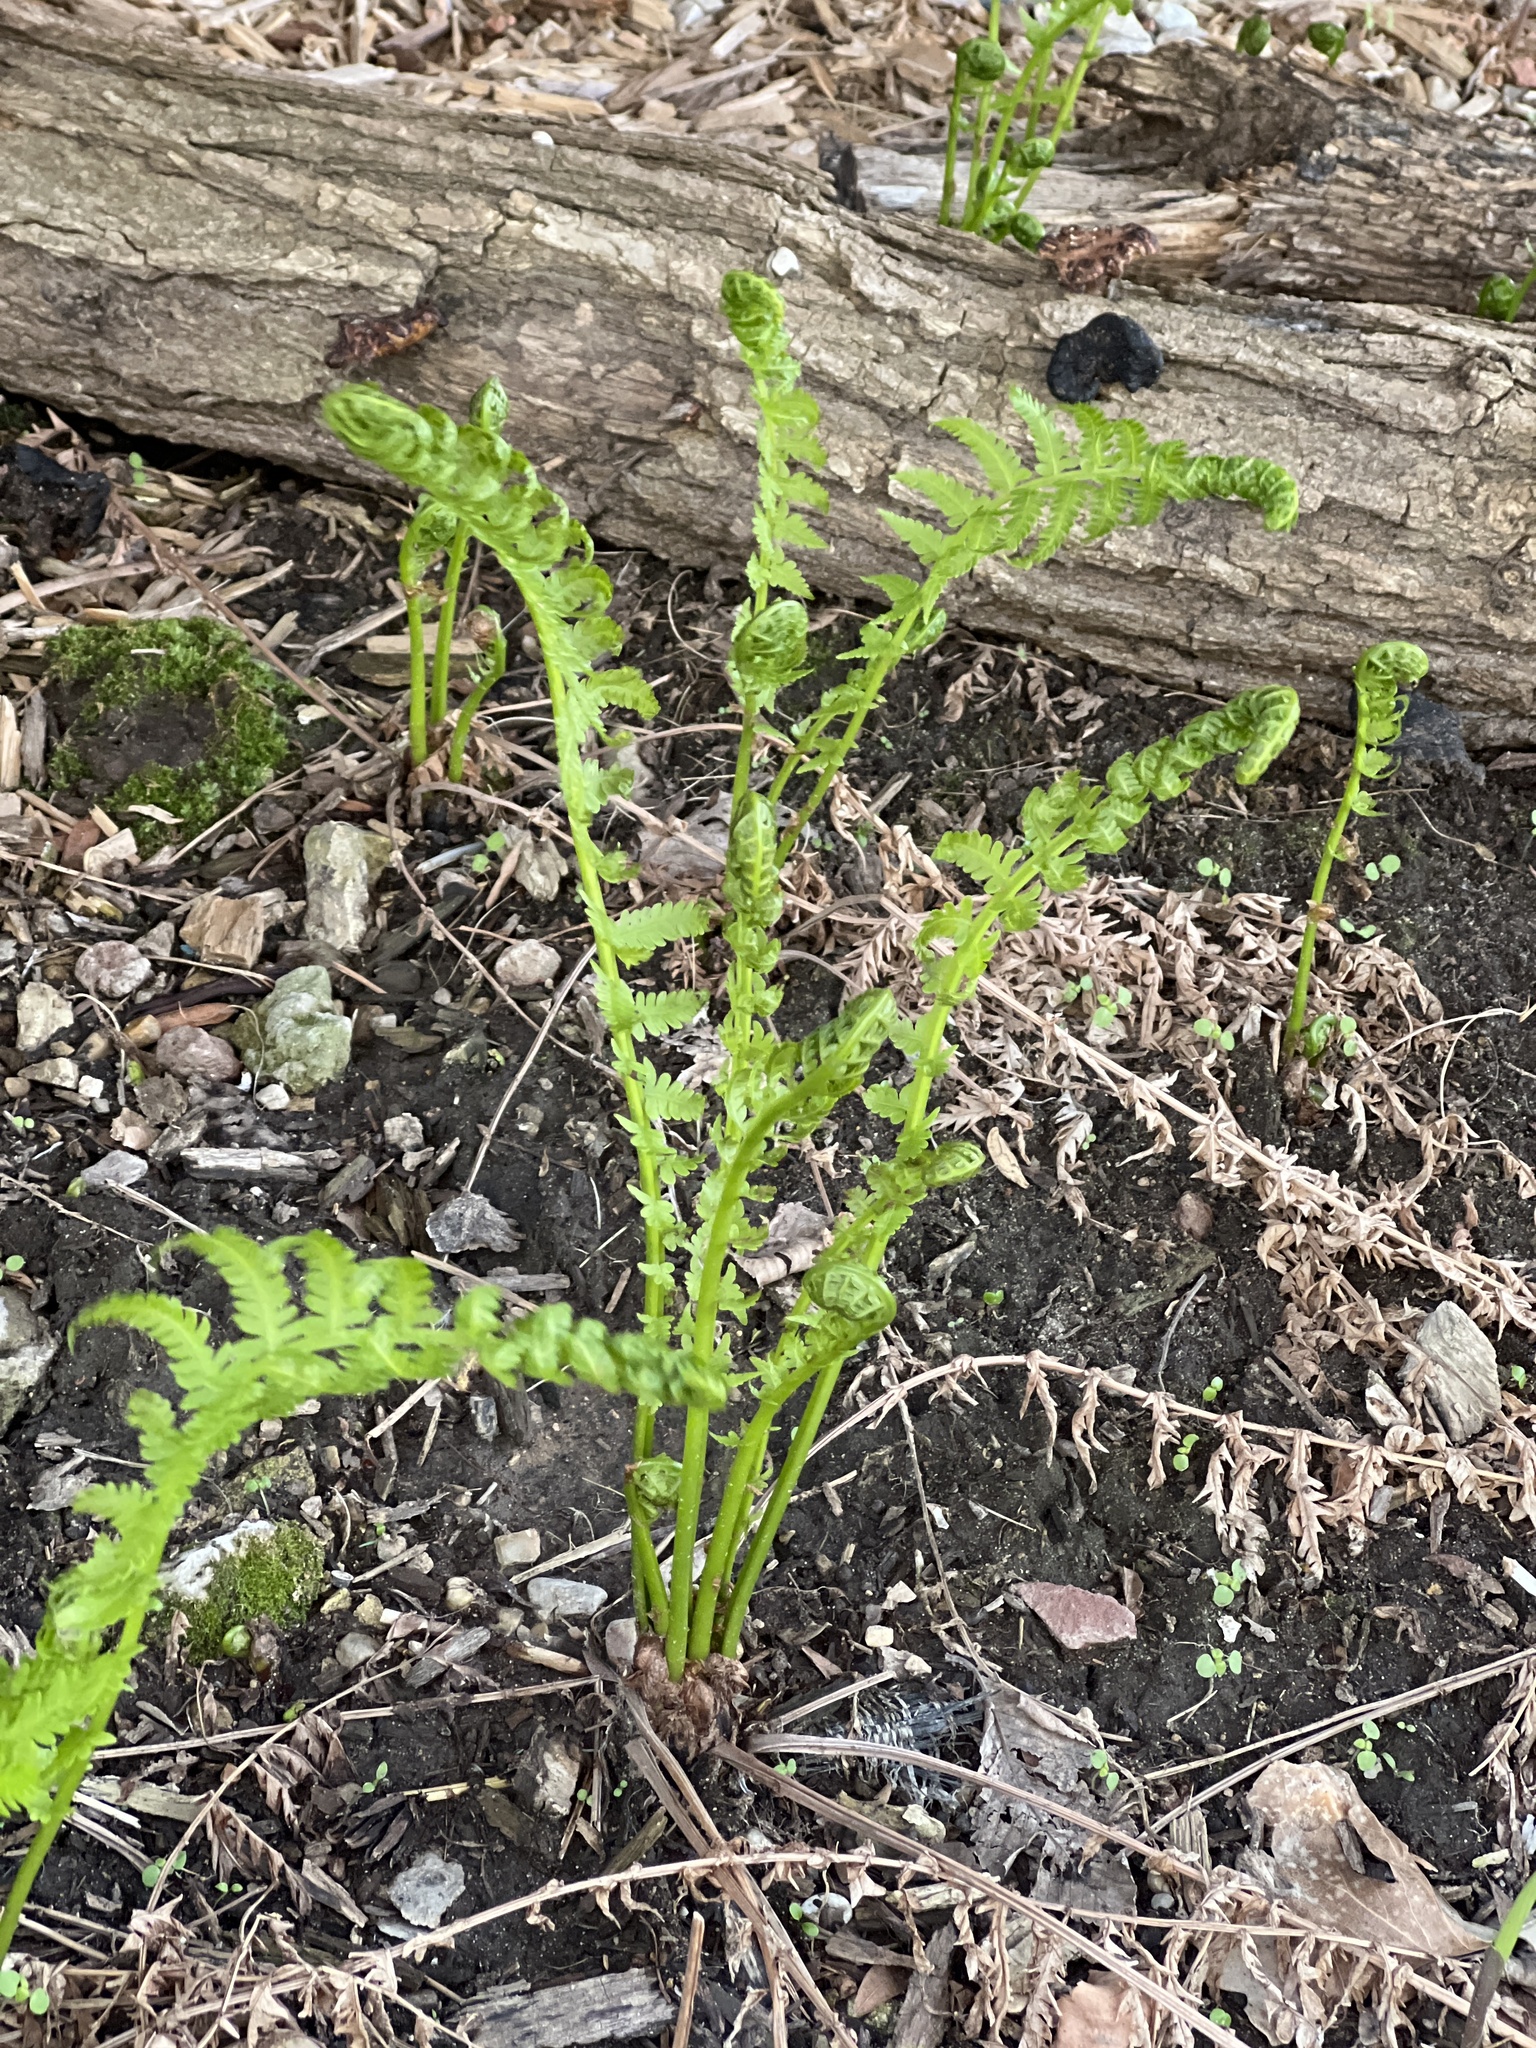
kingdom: Plantae
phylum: Tracheophyta
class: Polypodiopsida
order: Polypodiales
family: Onocleaceae
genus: Matteuccia
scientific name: Matteuccia struthiopteris
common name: Ostrich fern
